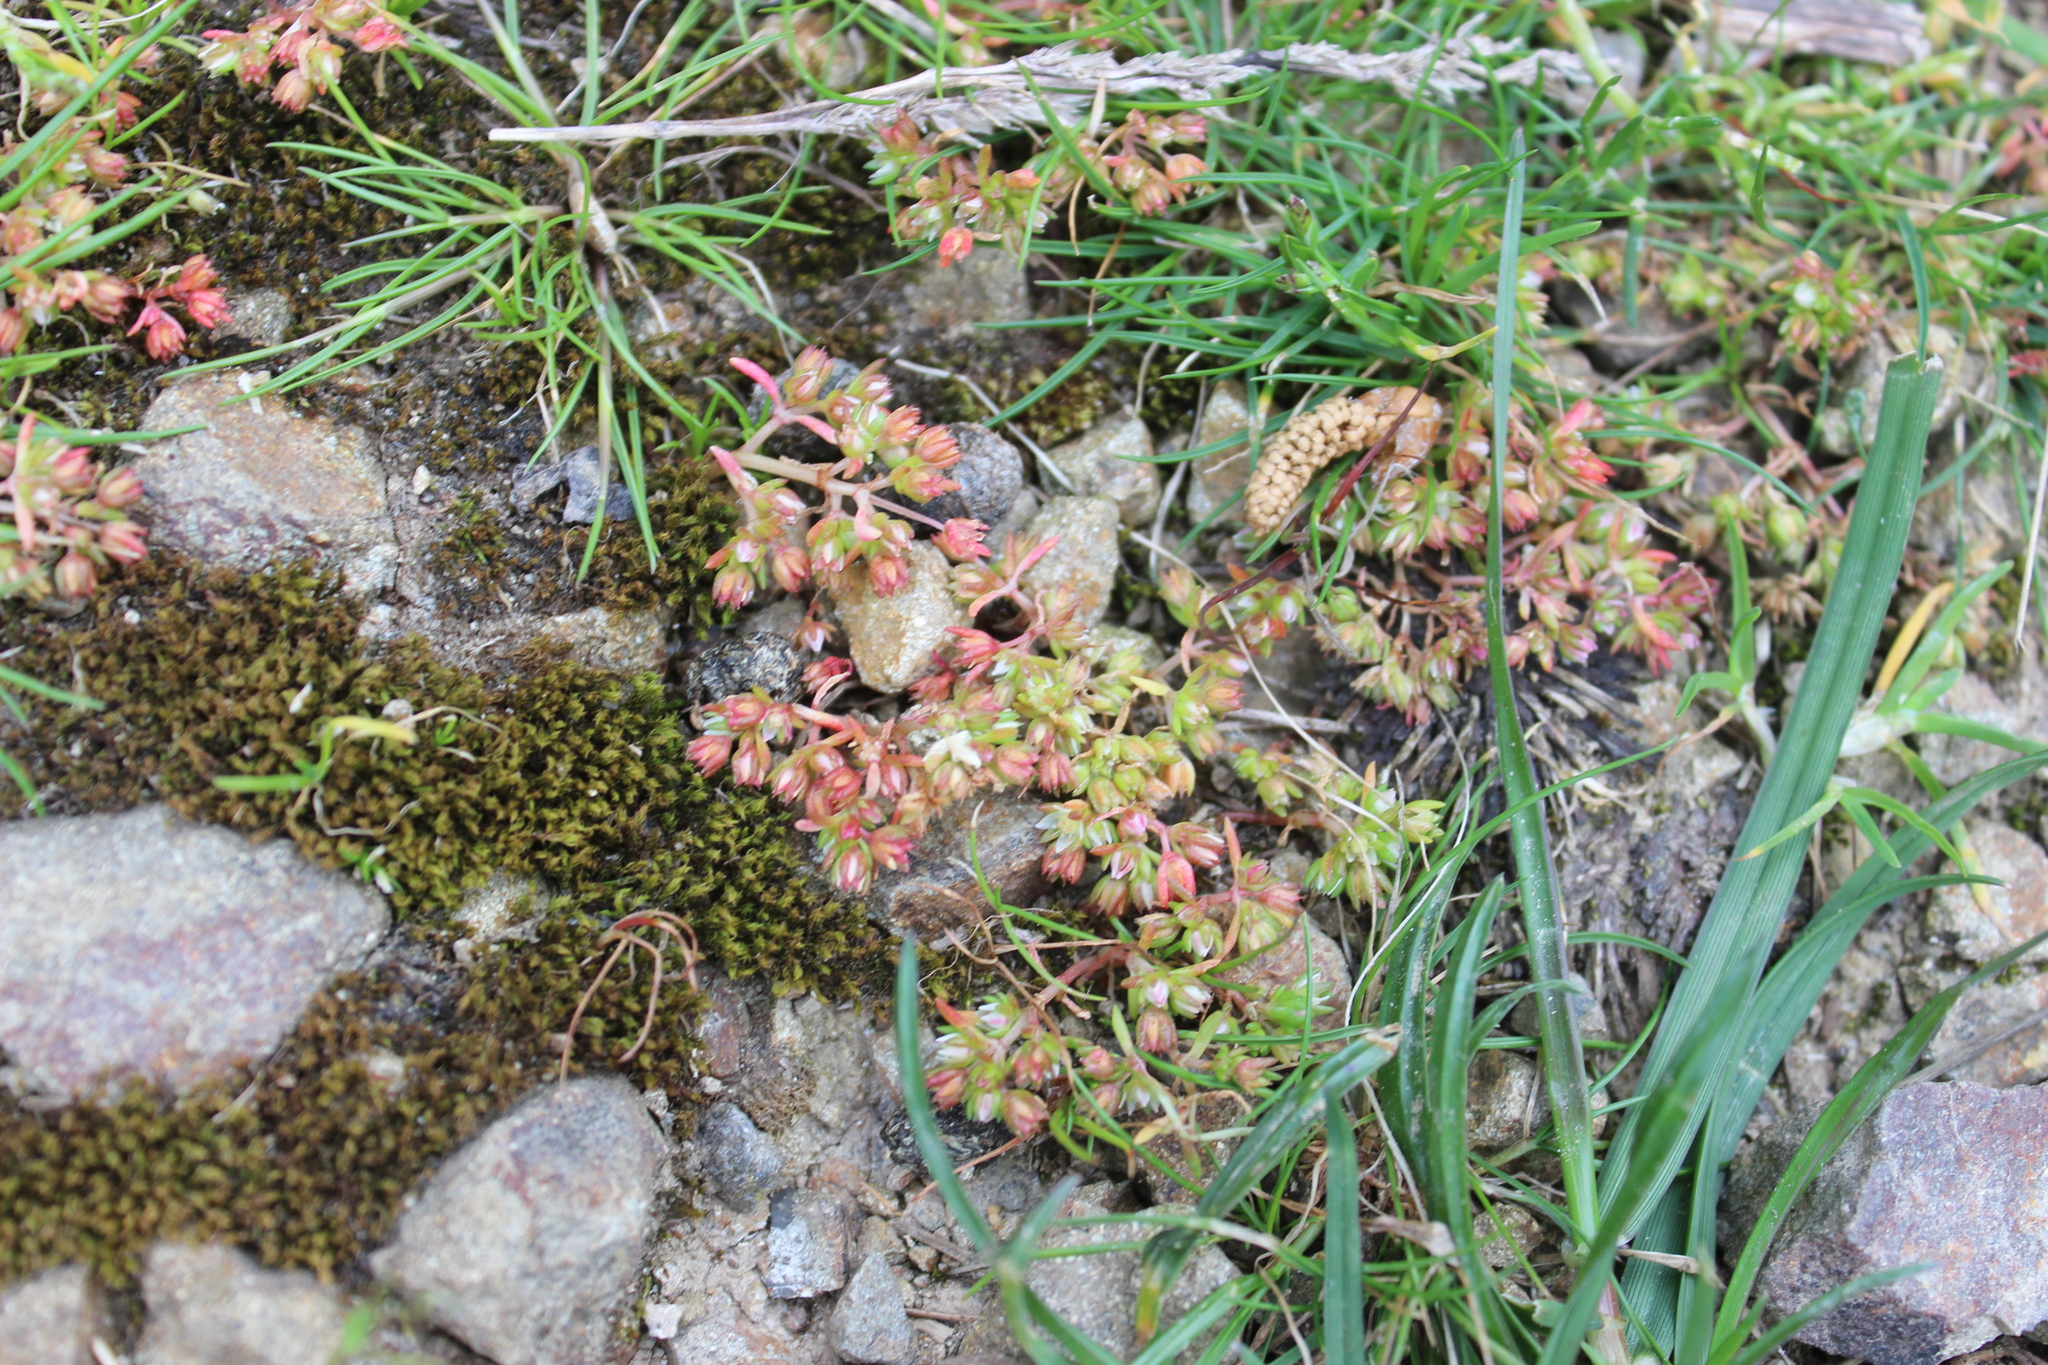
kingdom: Plantae
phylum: Tracheophyta
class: Magnoliopsida
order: Saxifragales
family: Crassulaceae
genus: Crassula
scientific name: Crassula decumbens
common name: Scilly pigmyweed
